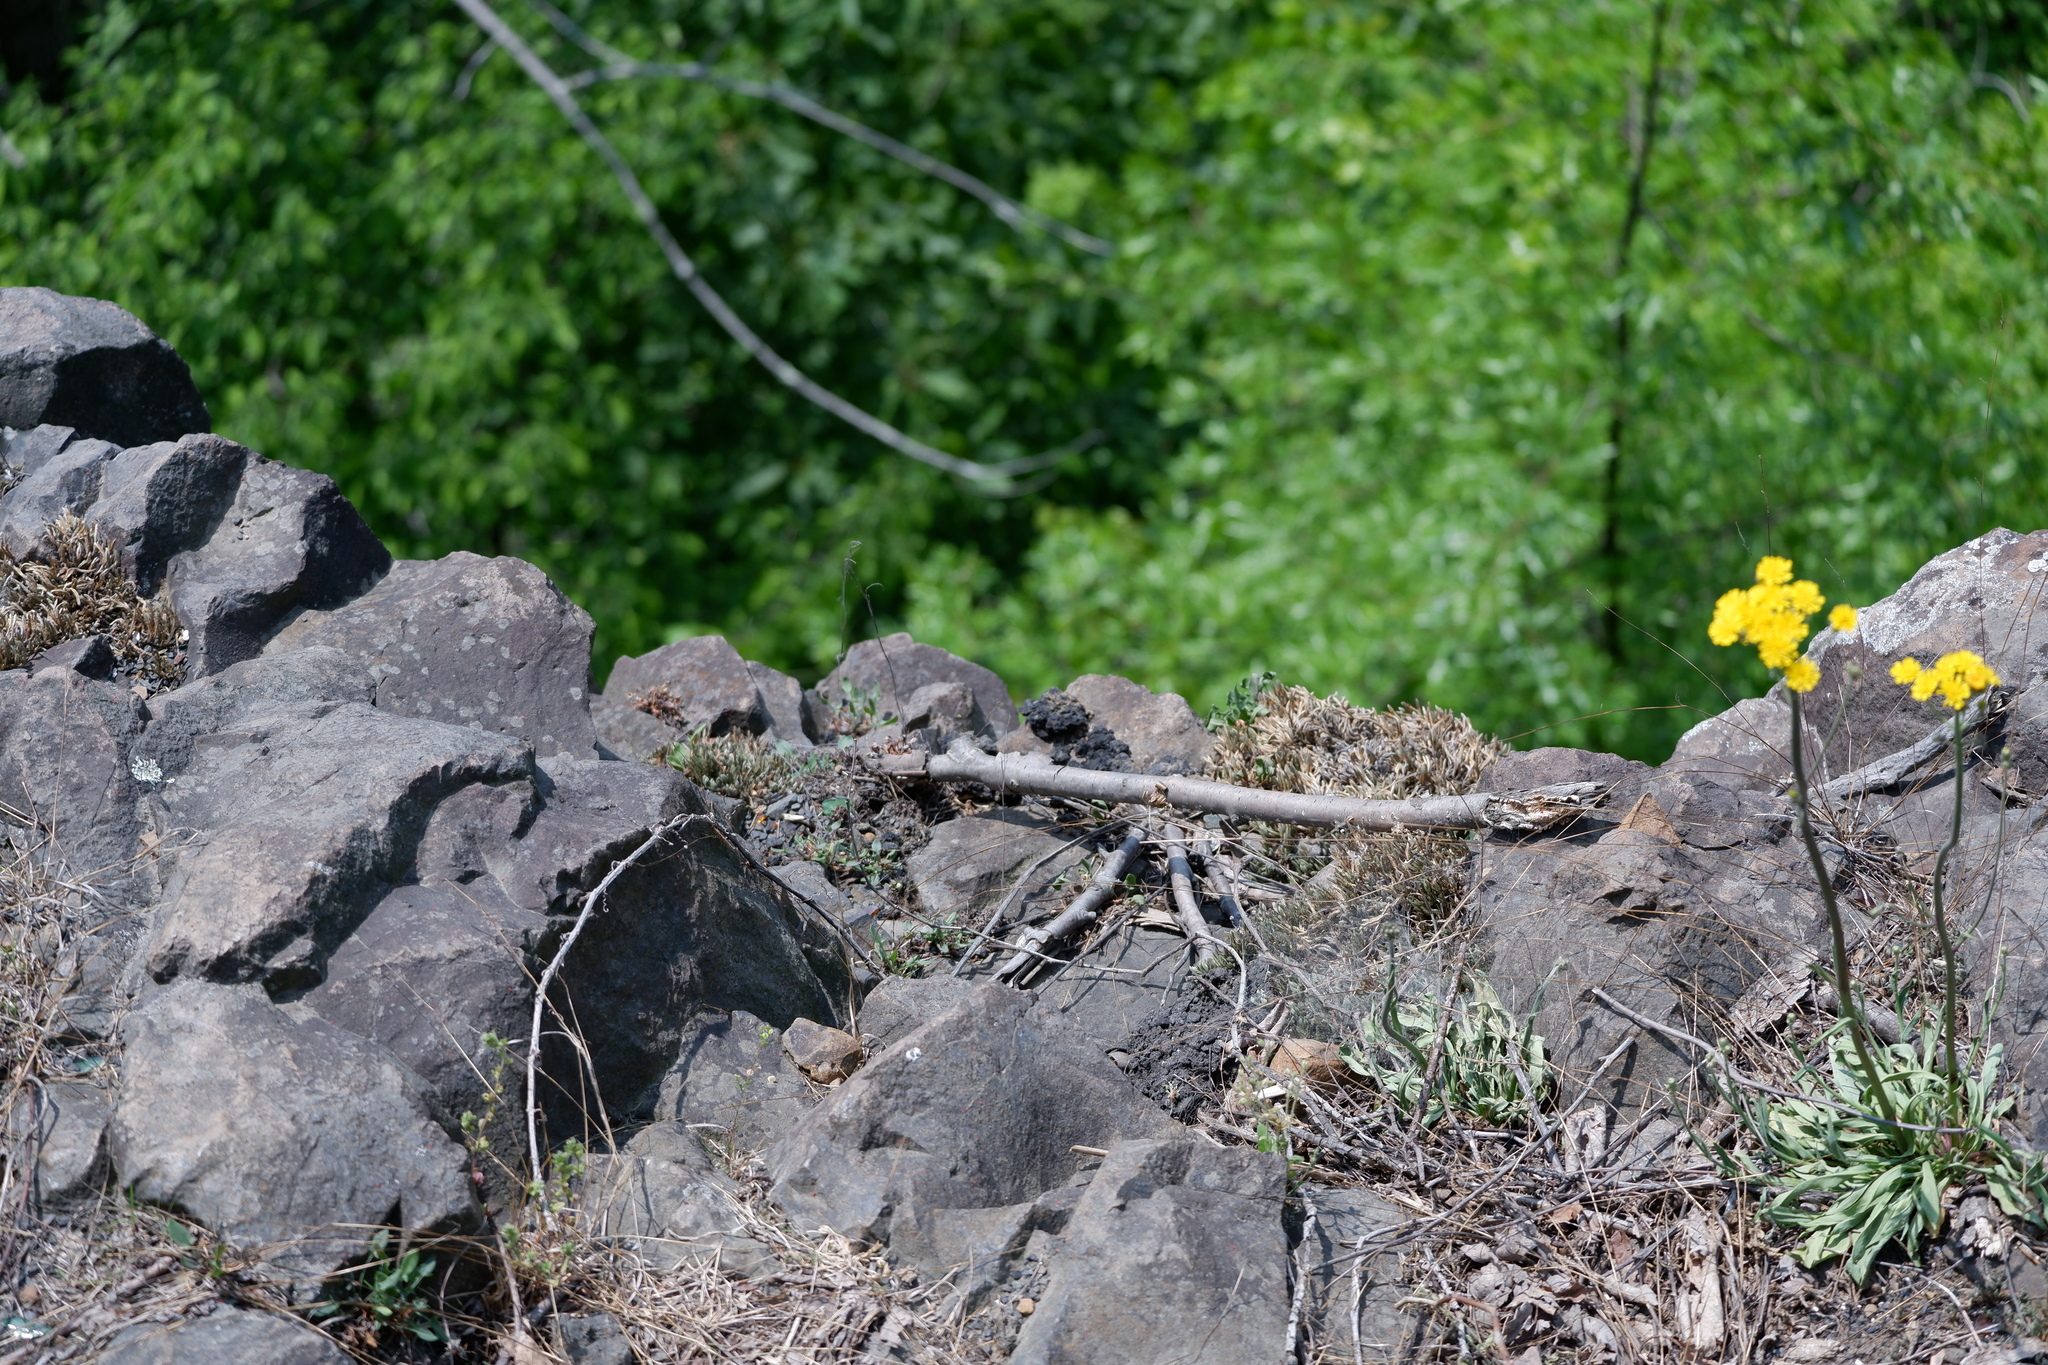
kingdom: Plantae
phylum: Tracheophyta
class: Lycopodiopsida
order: Selaginellales
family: Selaginellaceae
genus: Selaginella
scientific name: Selaginella rupestris
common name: Dwarf spikemoss
